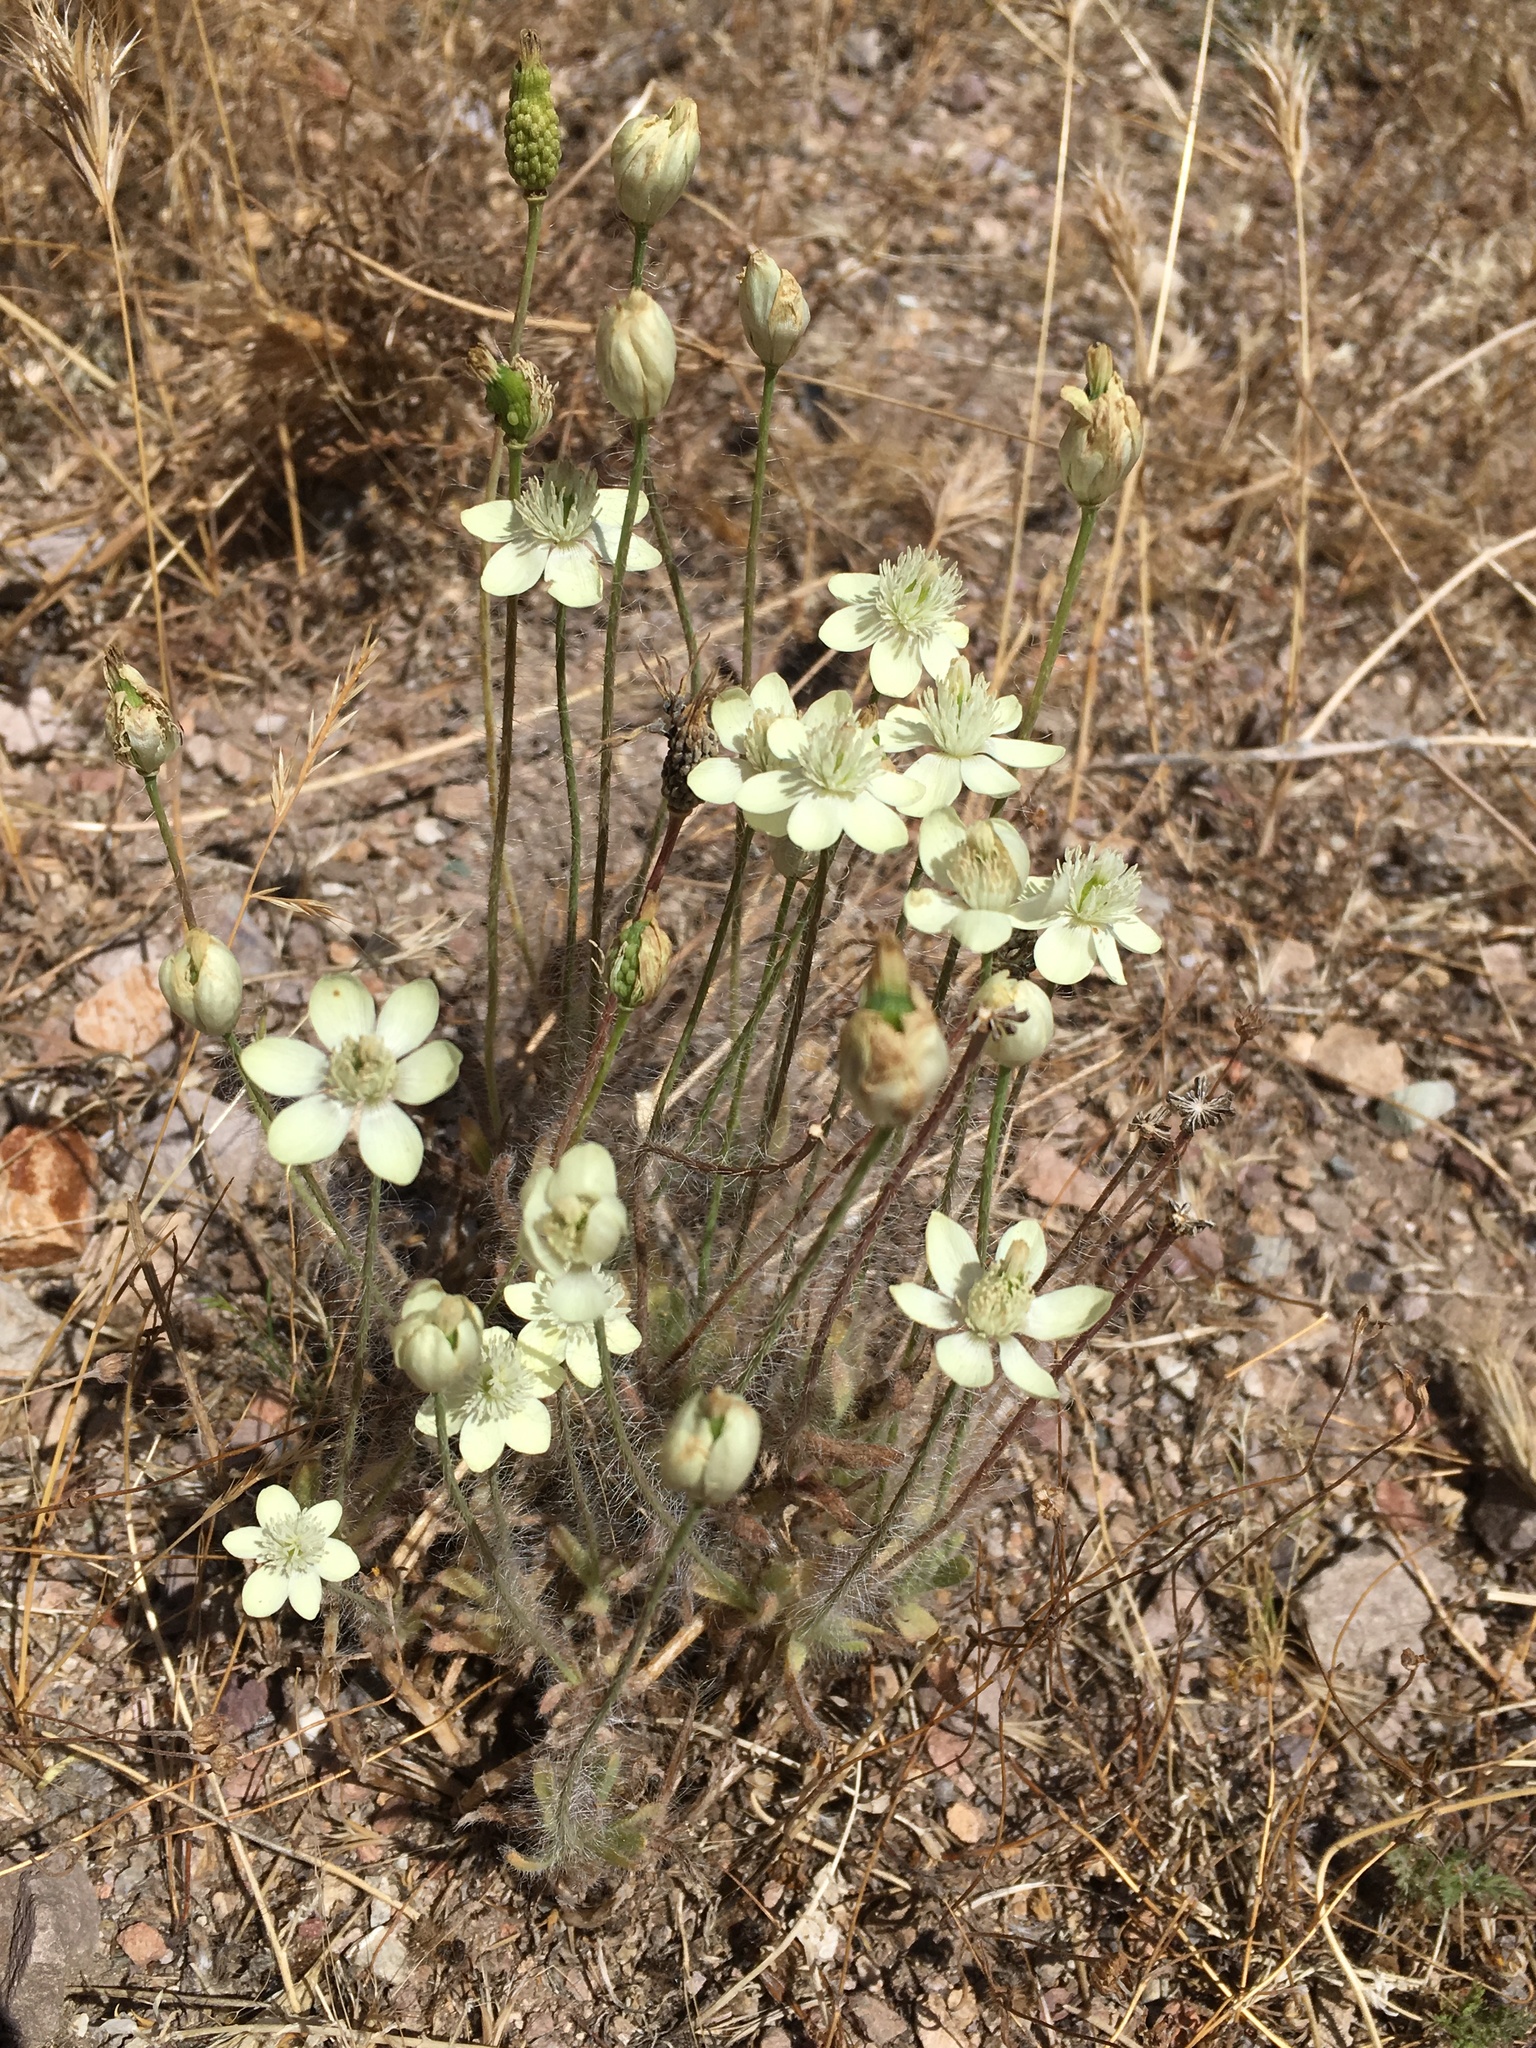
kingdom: Plantae
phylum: Tracheophyta
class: Magnoliopsida
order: Ranunculales
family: Papaveraceae
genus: Platystemon
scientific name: Platystemon californicus
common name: Cream-cups
